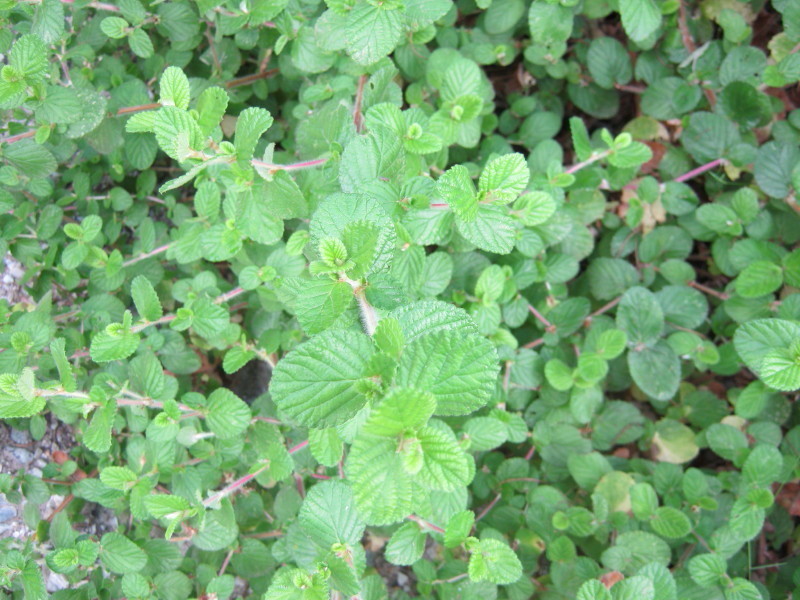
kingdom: Plantae
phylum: Tracheophyta
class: Magnoliopsida
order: Rosales
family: Rosaceae
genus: Cliffortia
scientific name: Cliffortia odorata
